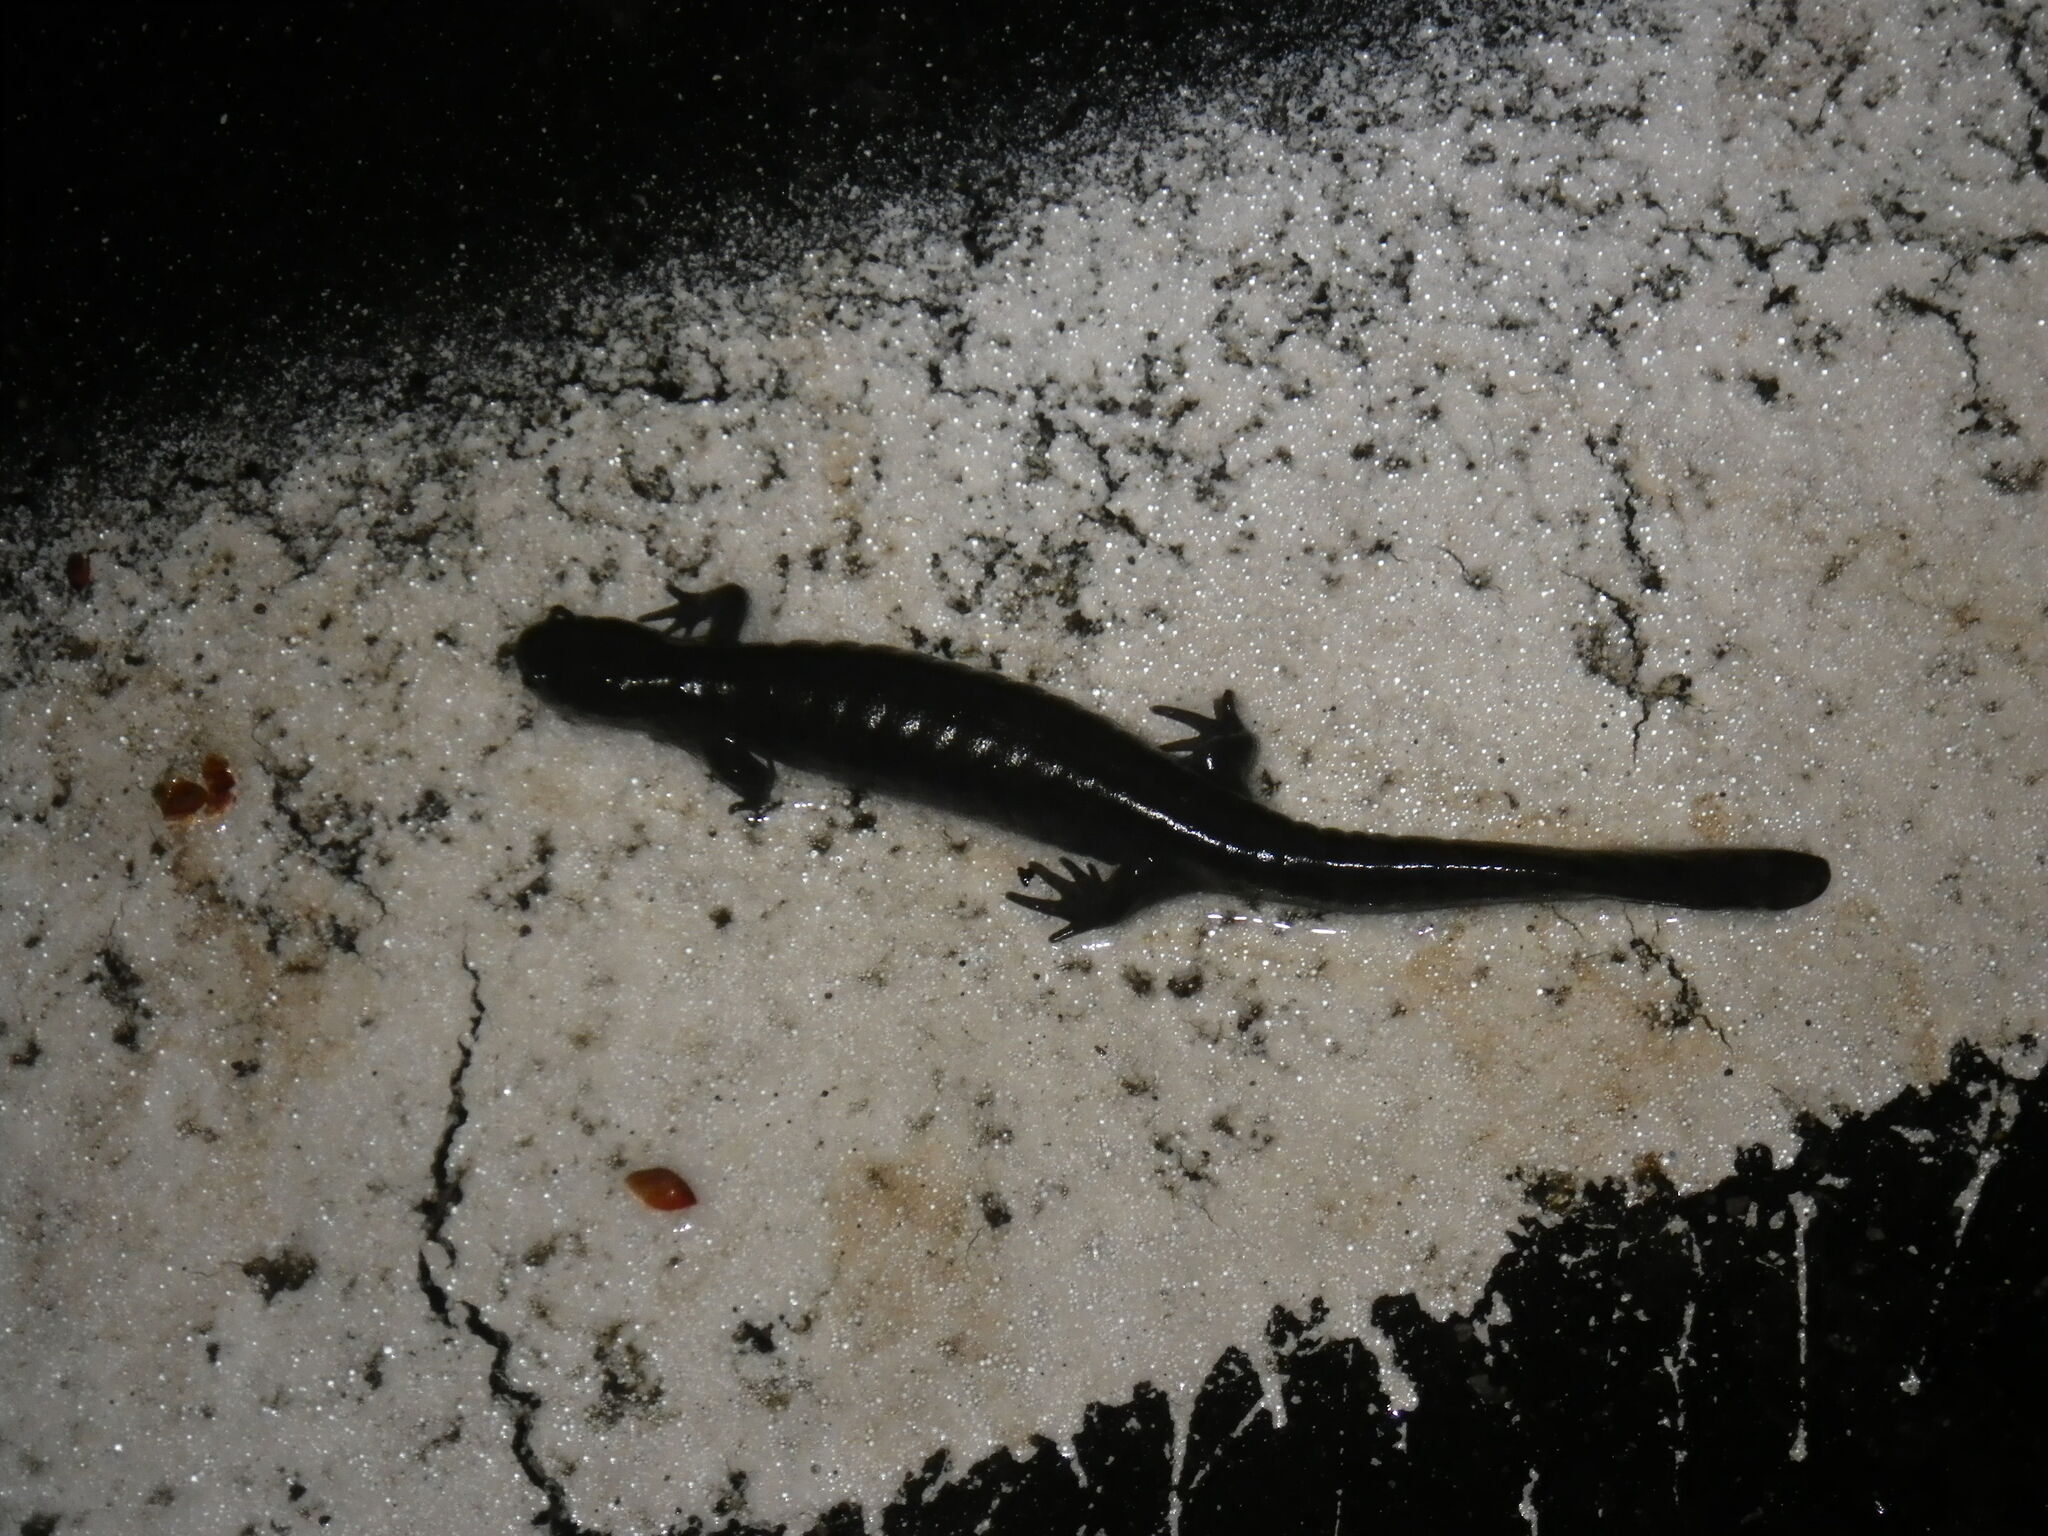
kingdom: Animalia
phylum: Chordata
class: Amphibia
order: Caudata
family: Ambystomatidae
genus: Ambystoma
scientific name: Ambystoma texanum
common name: Small-mouth salamander
